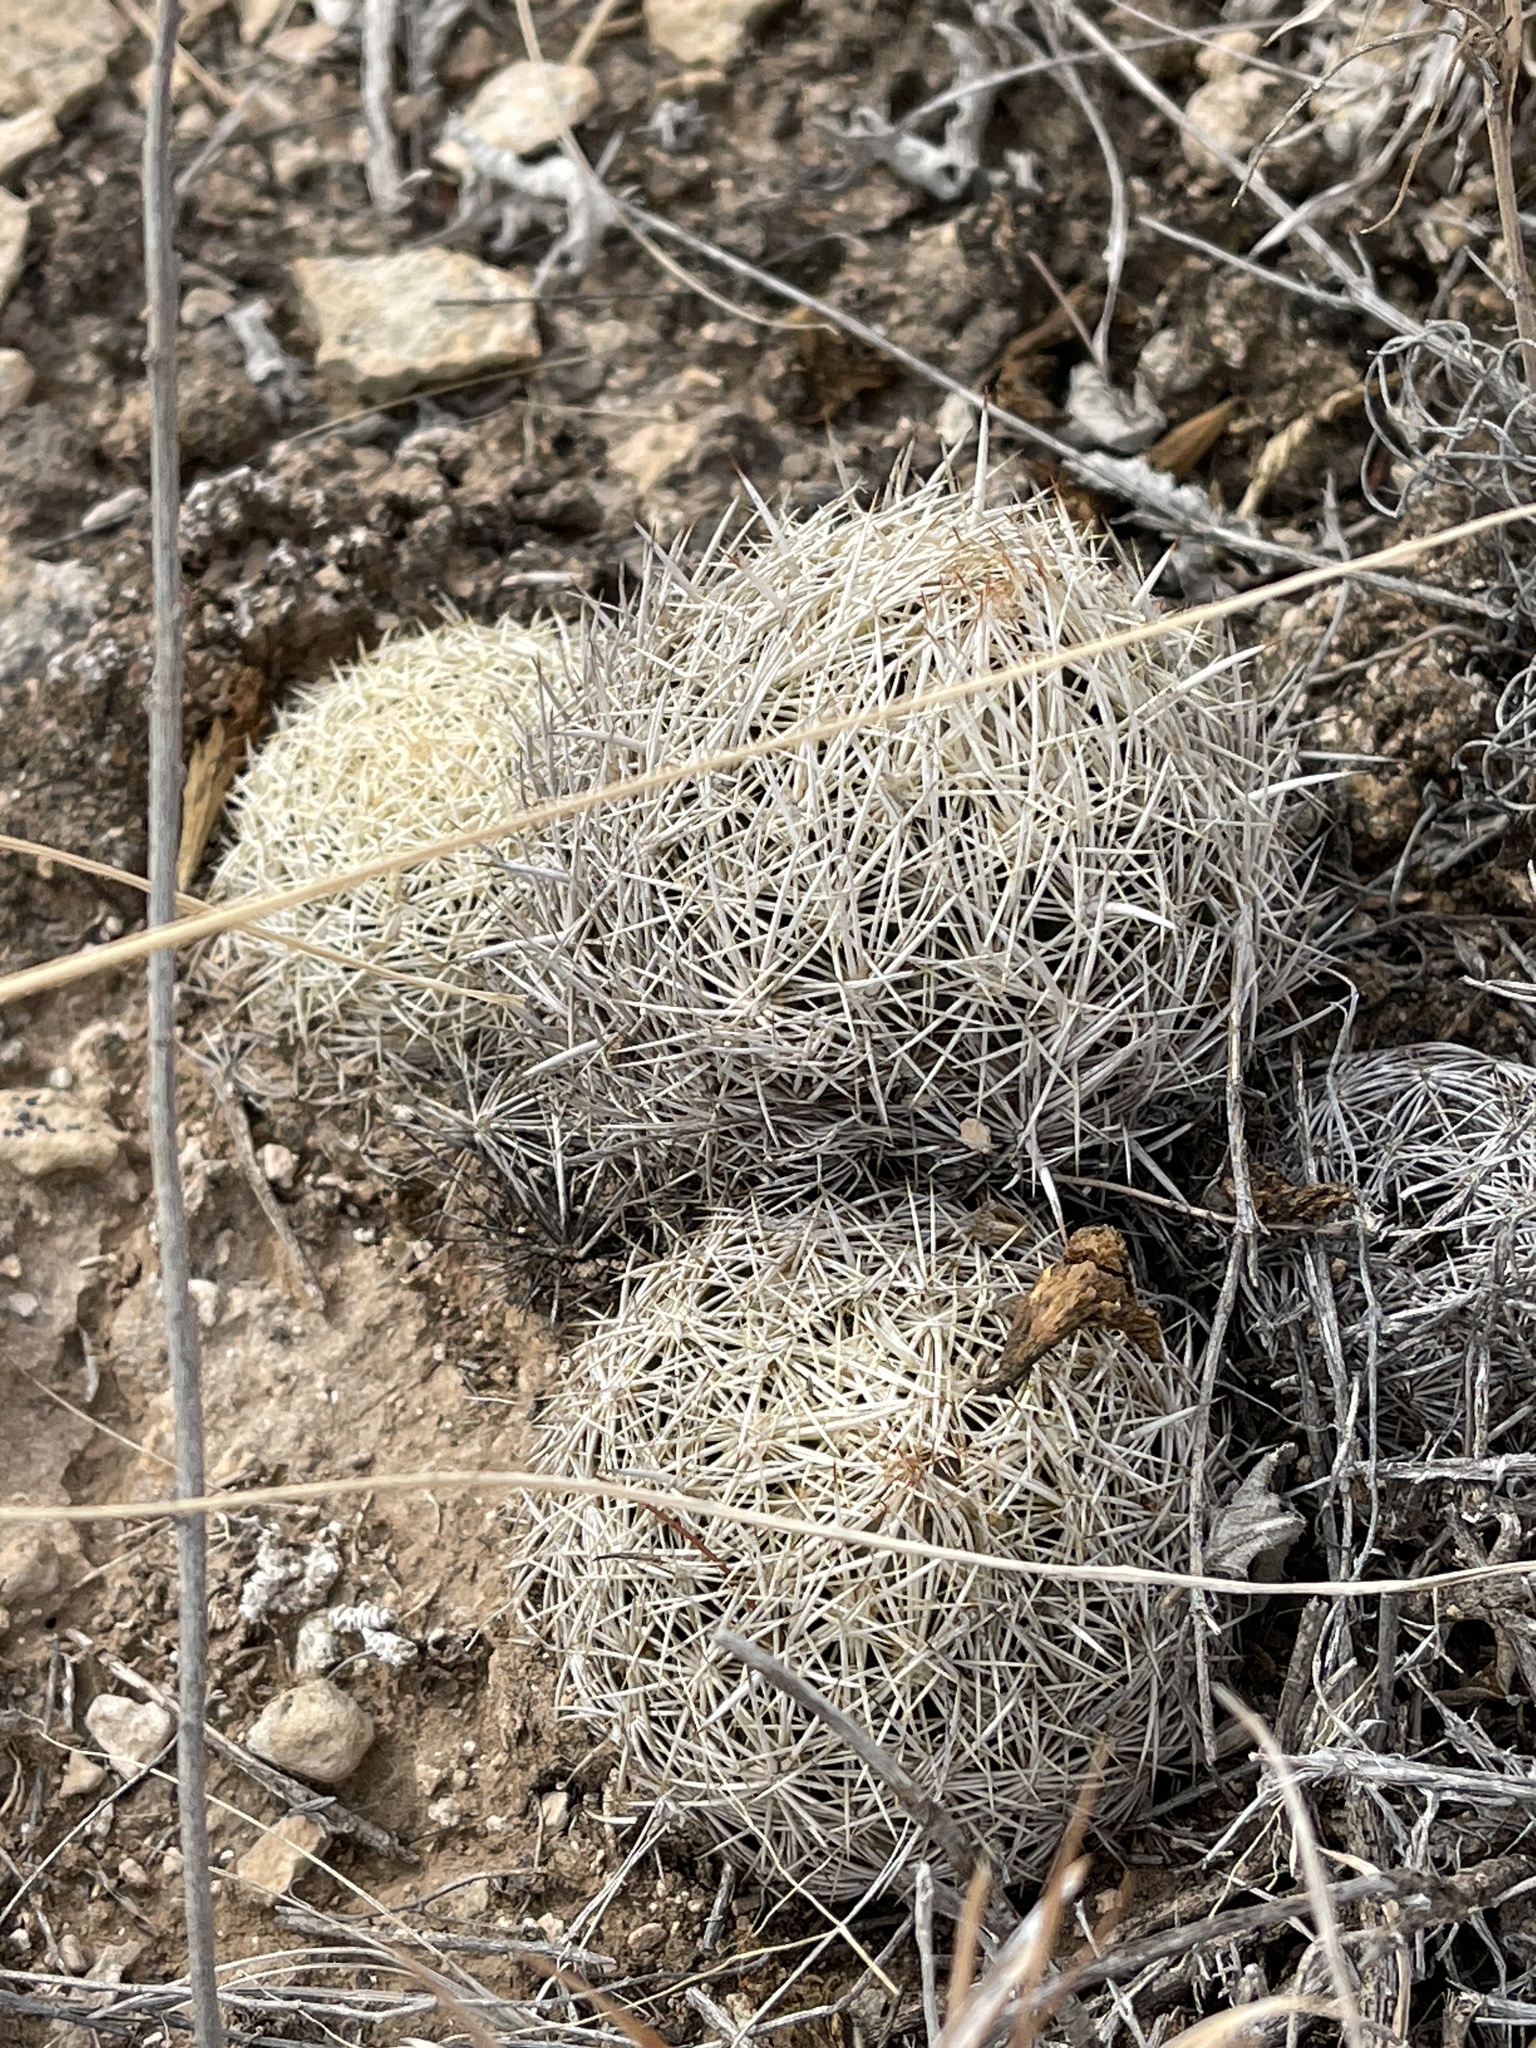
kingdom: Plantae
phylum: Tracheophyta
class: Magnoliopsida
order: Caryophyllales
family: Cactaceae
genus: Coryphantha
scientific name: Coryphantha echinus
